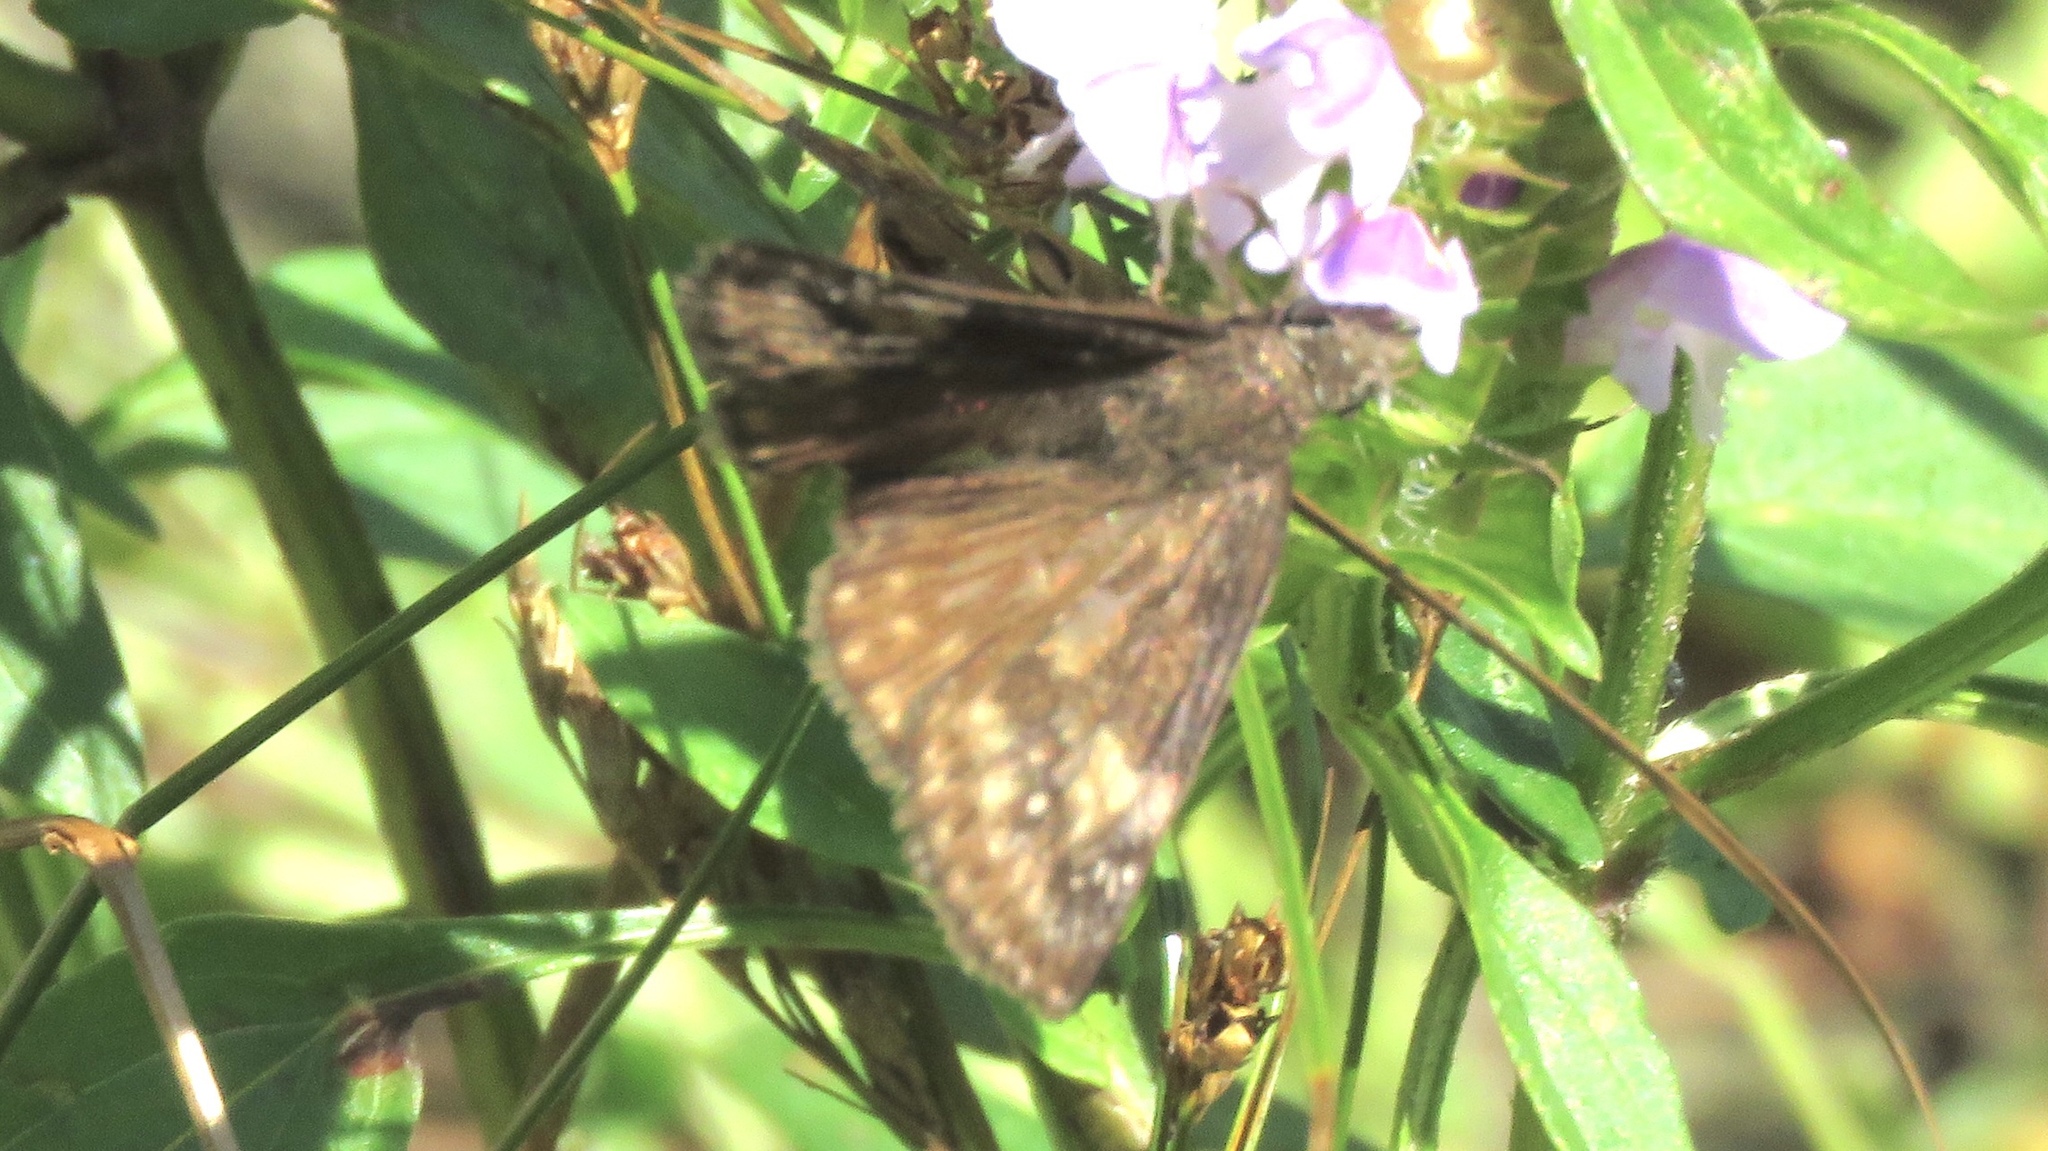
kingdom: Animalia
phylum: Arthropoda
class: Insecta
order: Lepidoptera
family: Hesperiidae
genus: Erynnis
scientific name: Erynnis baptisiae
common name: Wild indigo duskywing
